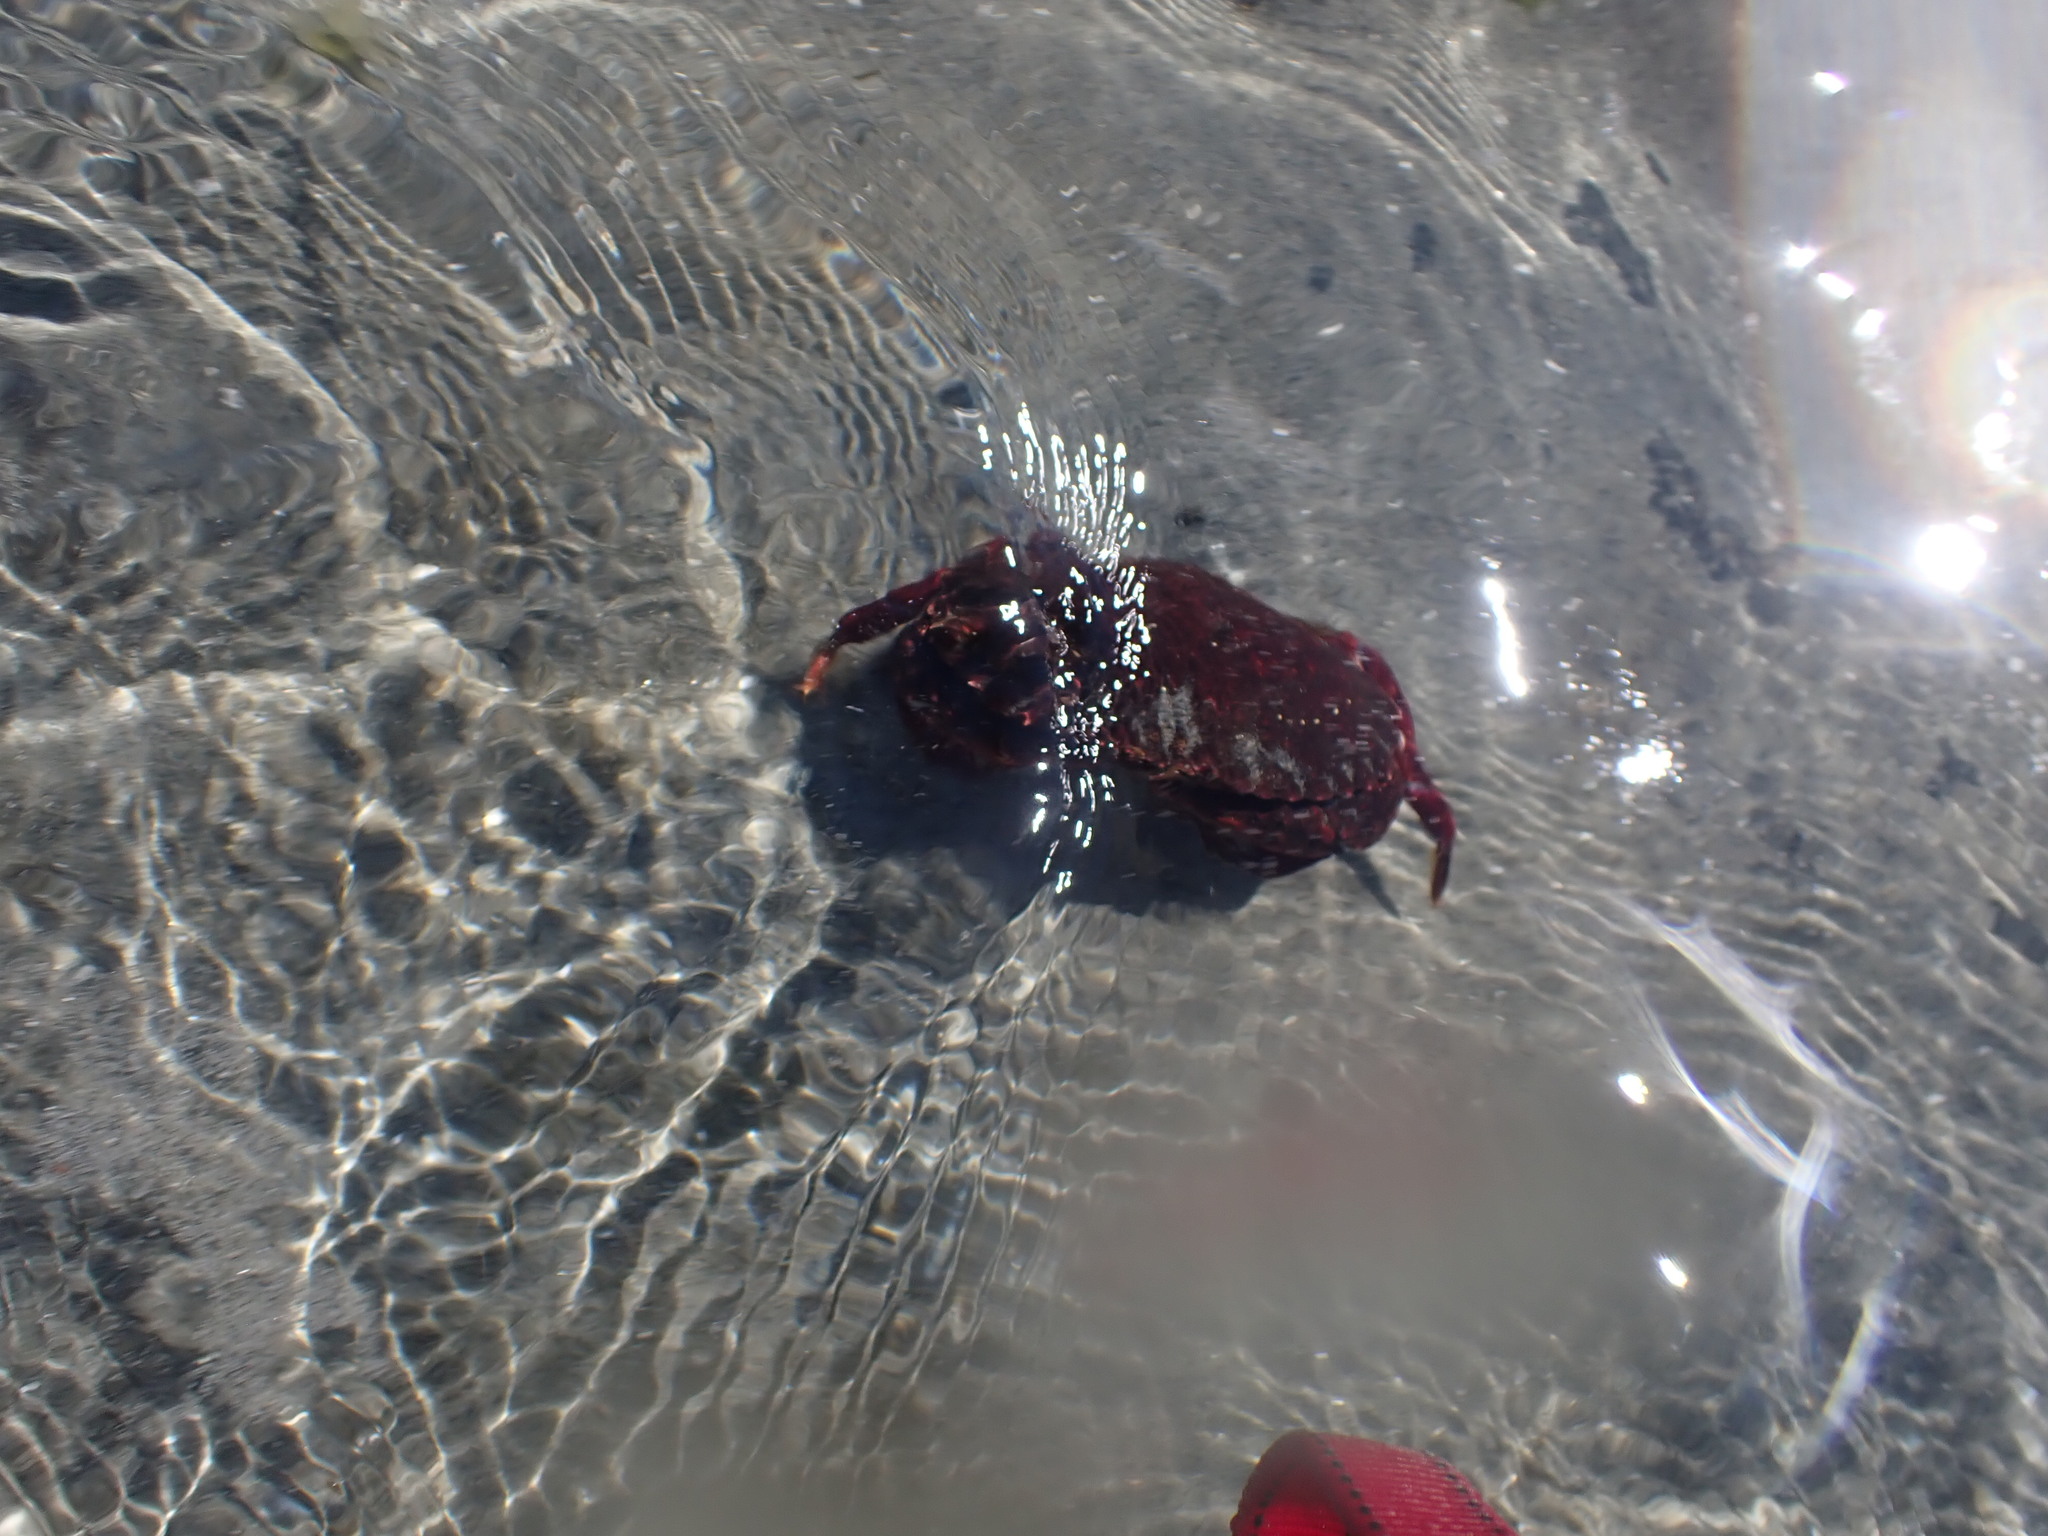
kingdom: Animalia
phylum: Arthropoda
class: Malacostraca
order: Decapoda
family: Cancridae
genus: Cancer
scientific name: Cancer productus
